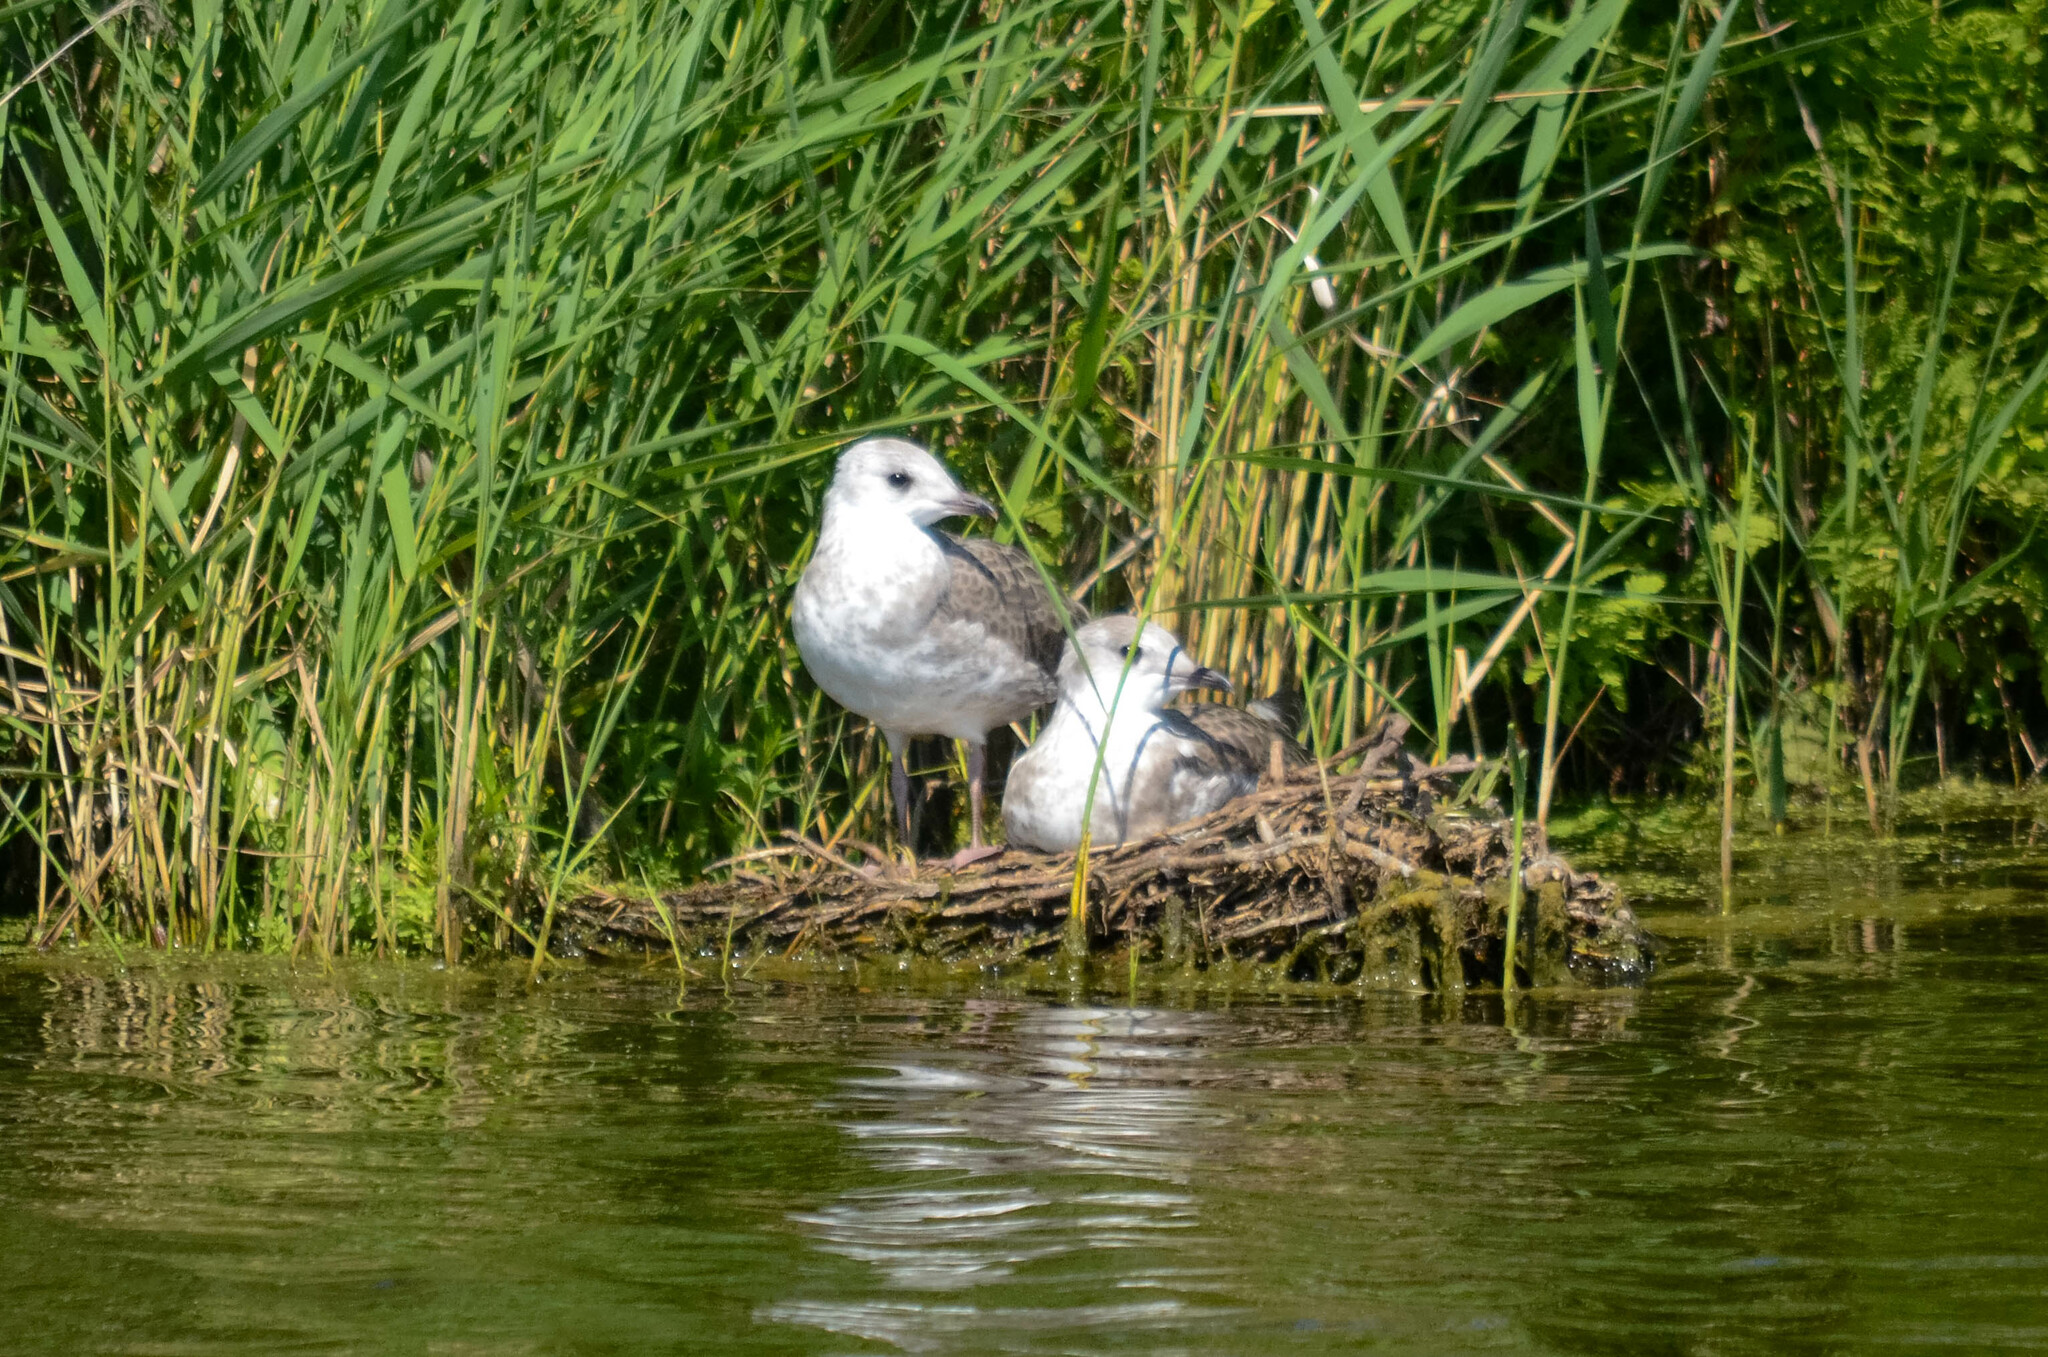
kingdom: Animalia
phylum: Chordata
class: Aves
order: Charadriiformes
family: Laridae
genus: Larus
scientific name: Larus canus
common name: Mew gull
